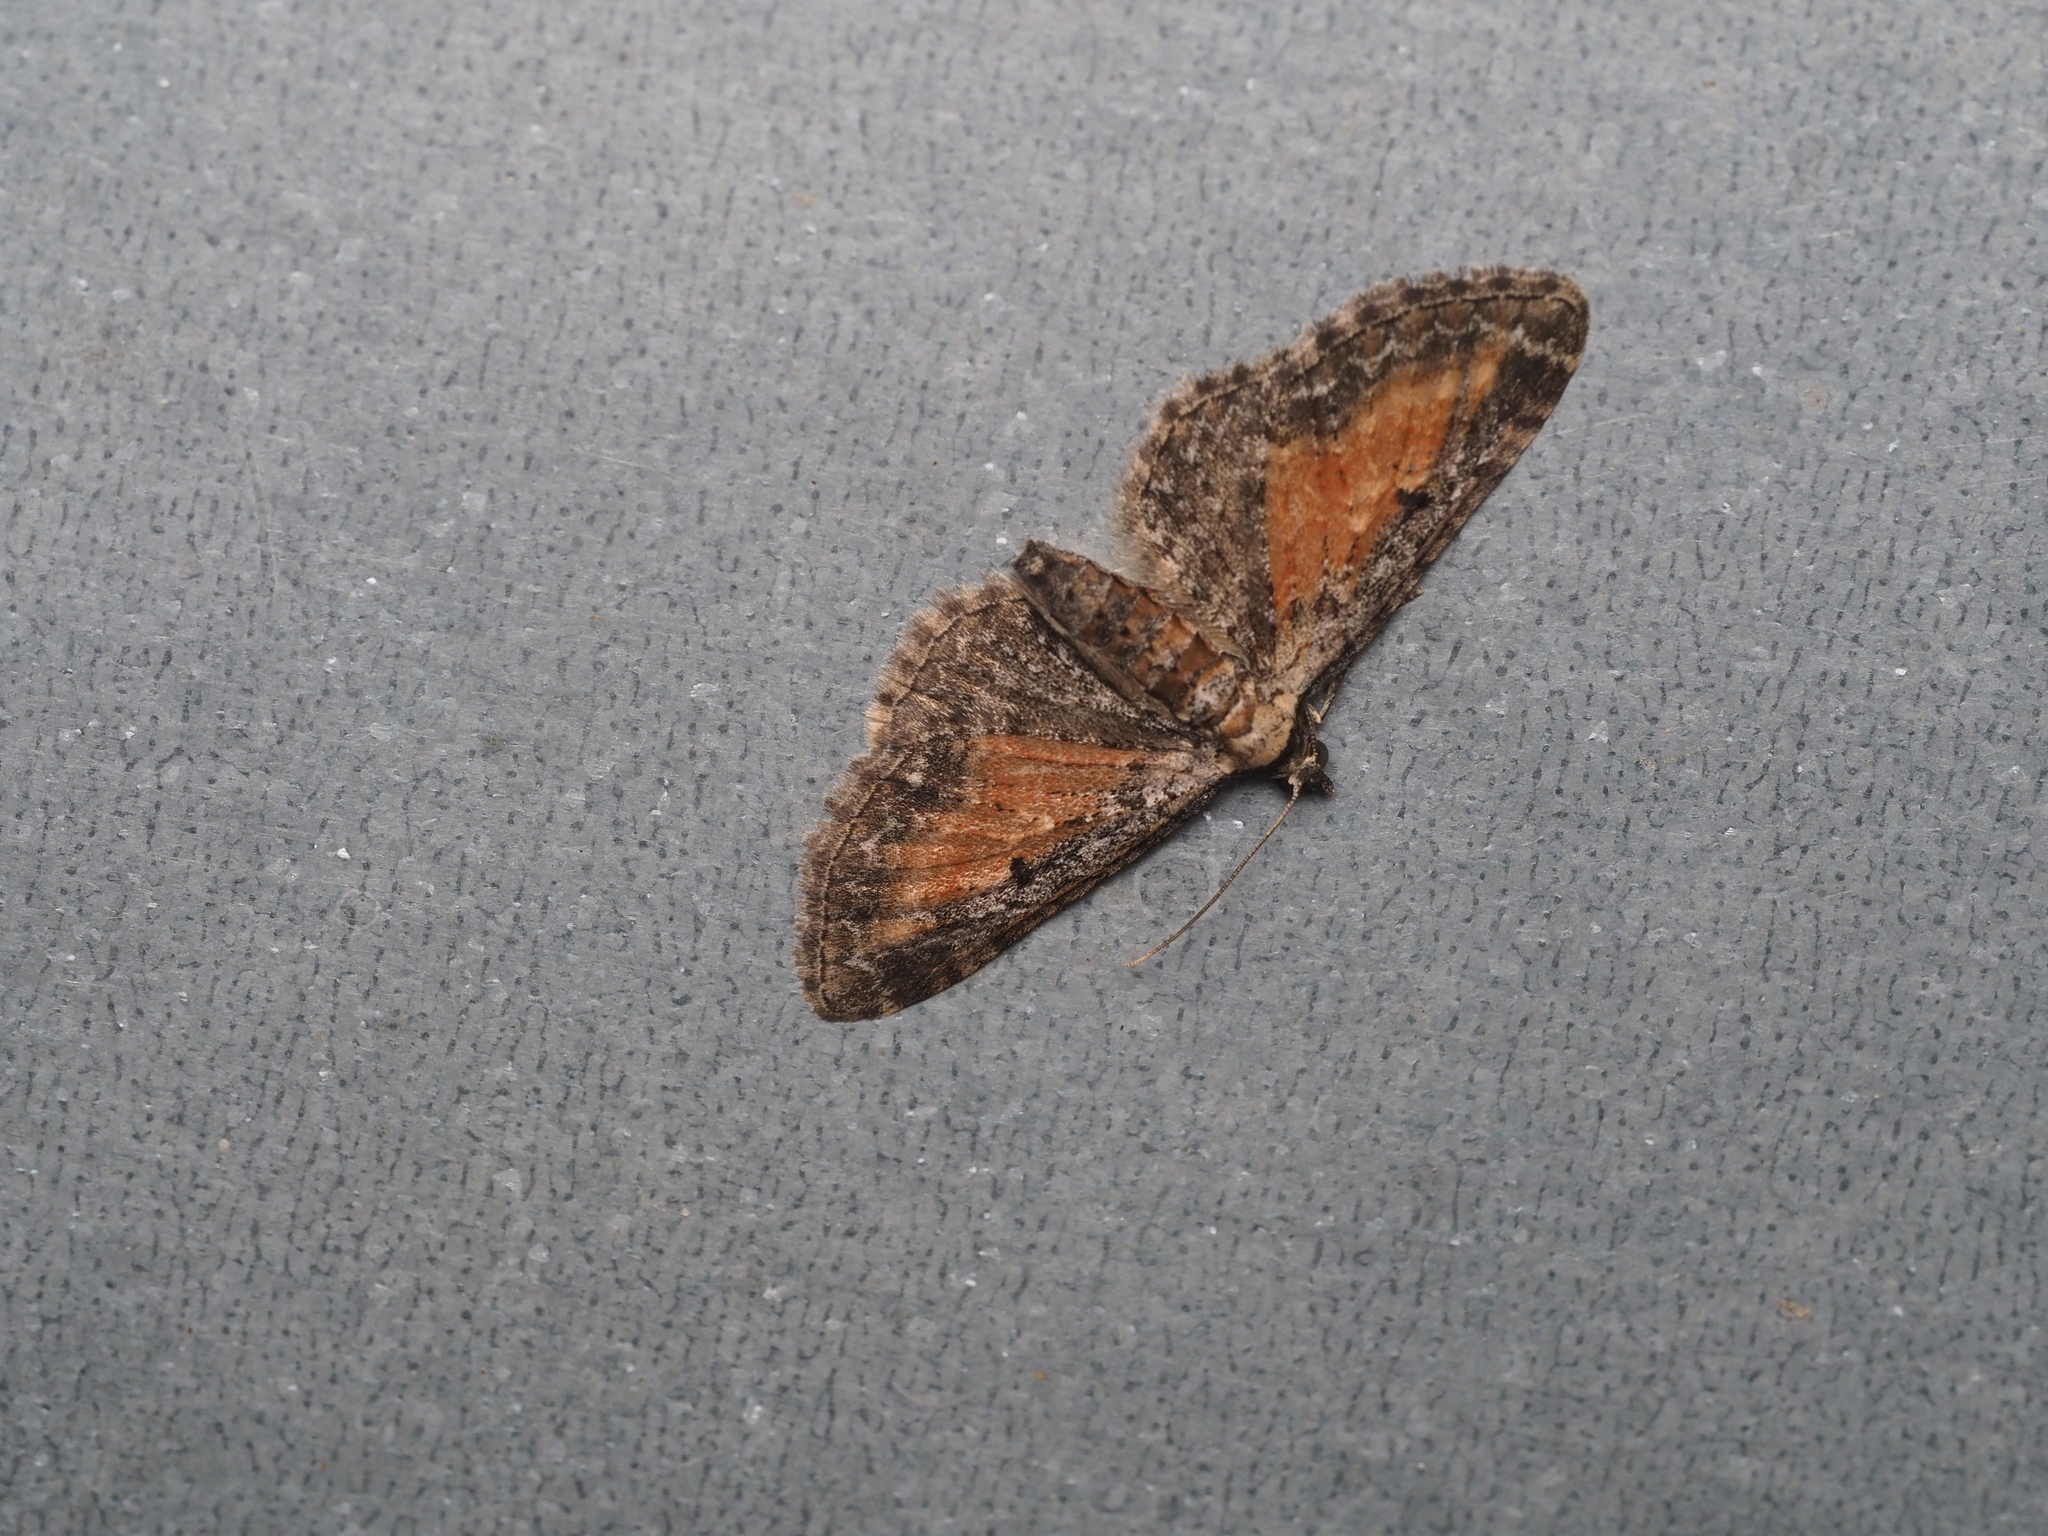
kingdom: Animalia
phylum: Arthropoda
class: Insecta
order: Lepidoptera
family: Geometridae
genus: Eupithecia
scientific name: Eupithecia icterata
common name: Tawny speckled pug
